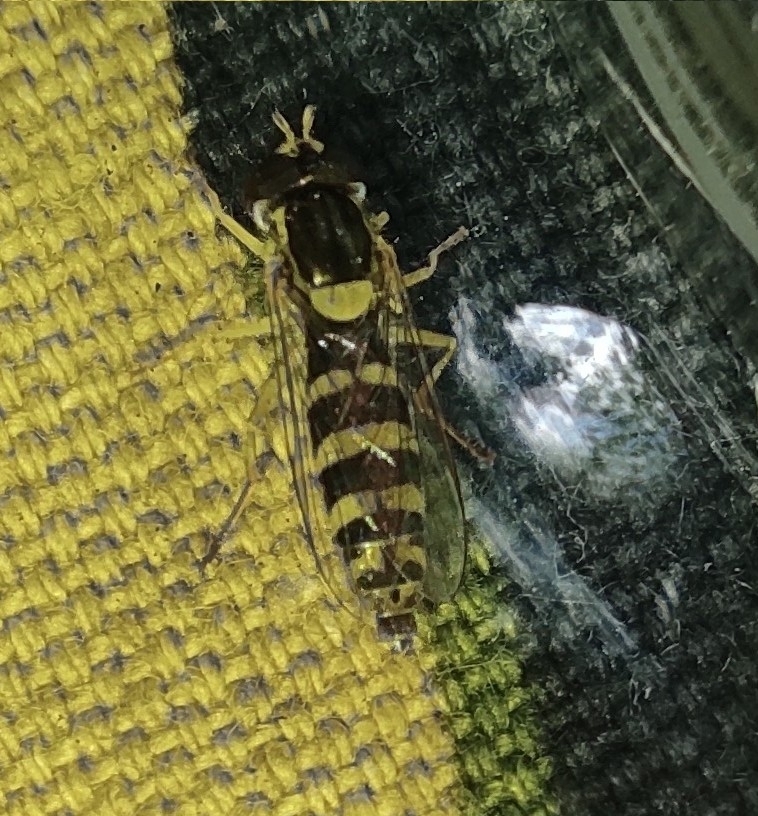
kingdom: Animalia
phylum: Arthropoda
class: Insecta
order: Diptera
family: Syrphidae
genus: Sphaerophoria
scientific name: Sphaerophoria
